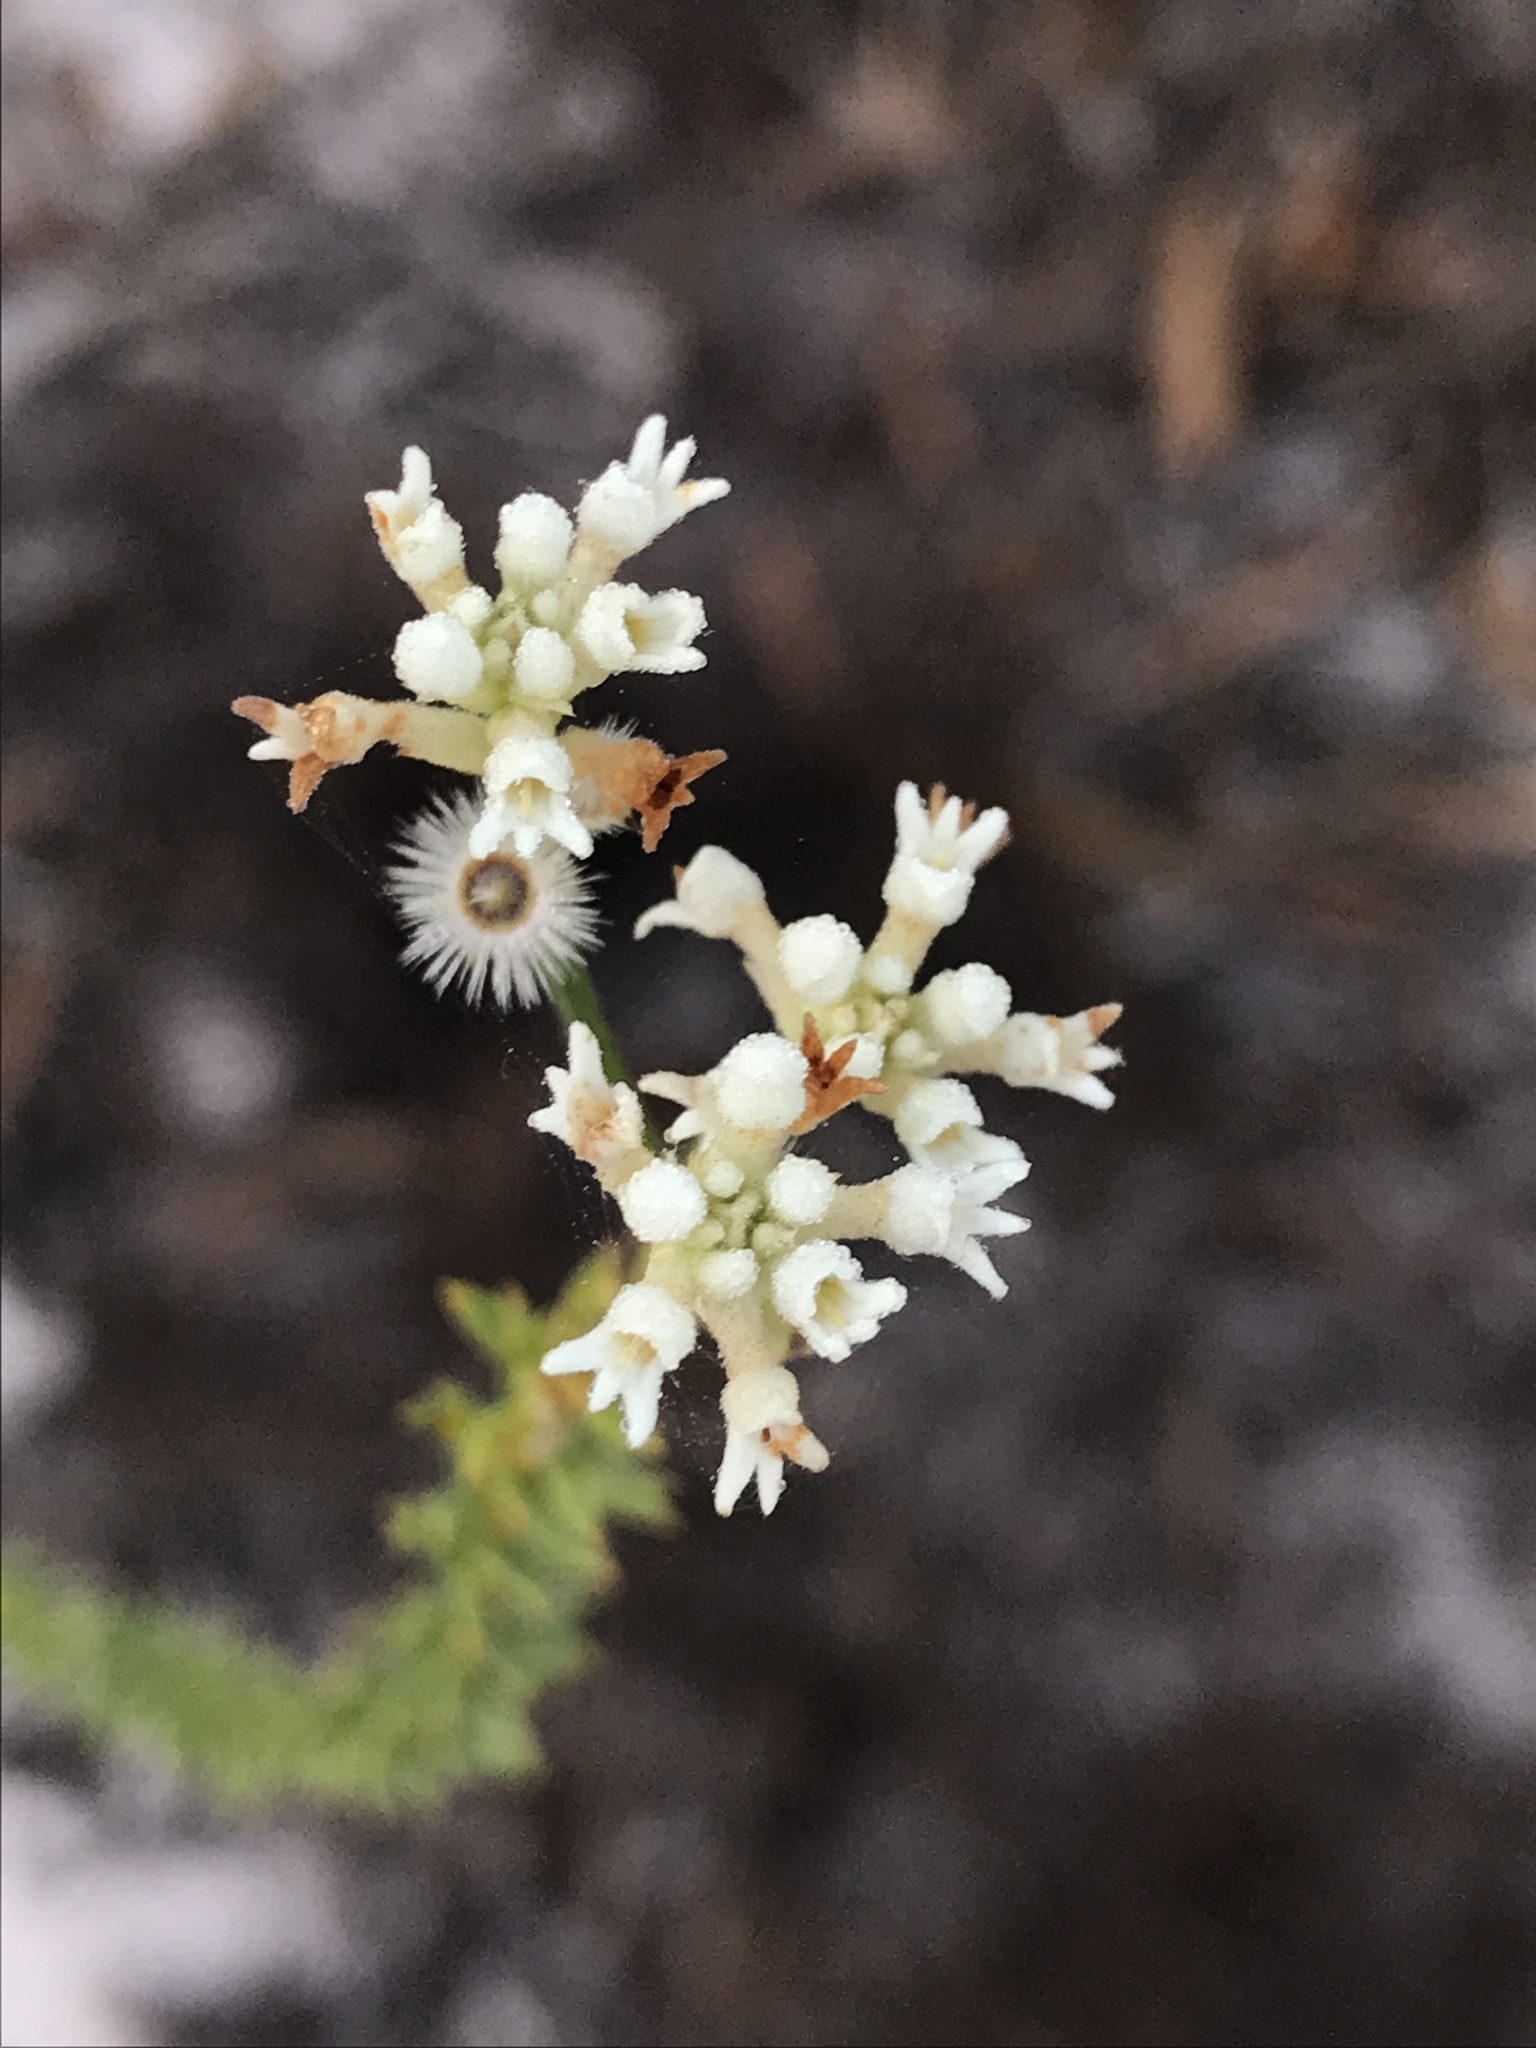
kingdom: Plantae
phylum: Tracheophyta
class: Magnoliopsida
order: Proteales
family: Proteaceae
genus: Conospermum
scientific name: Conospermum taxifolium
